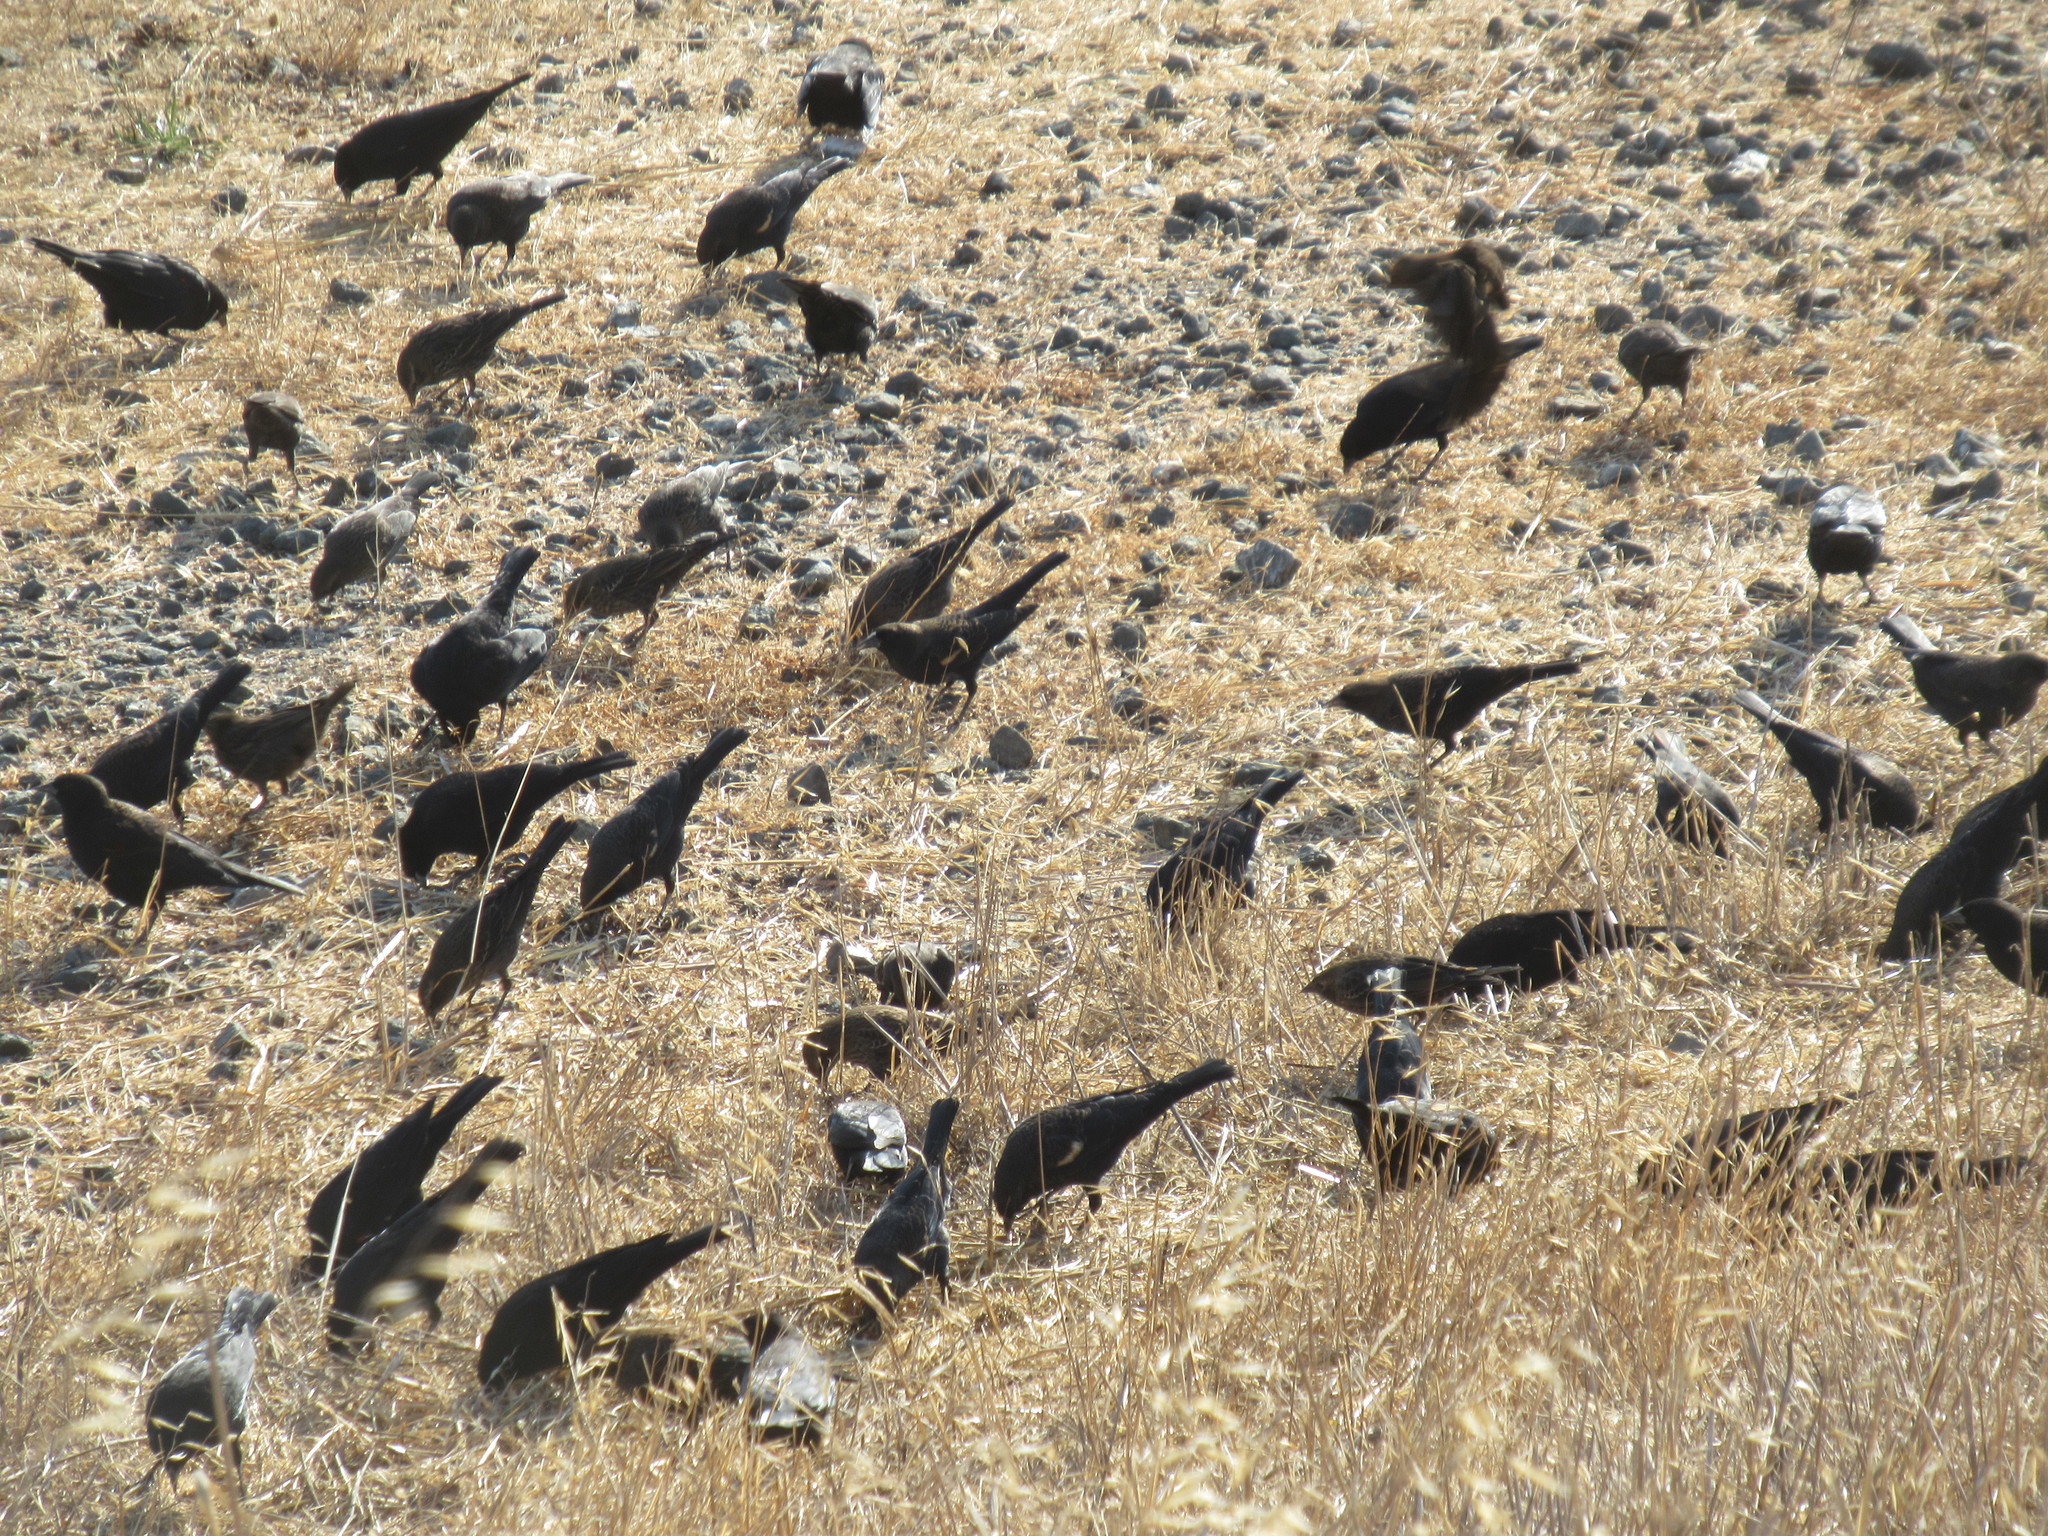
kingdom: Animalia
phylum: Chordata
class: Aves
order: Passeriformes
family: Icteridae
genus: Agelaius
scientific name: Agelaius tricolor
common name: Tricolored blackbird
